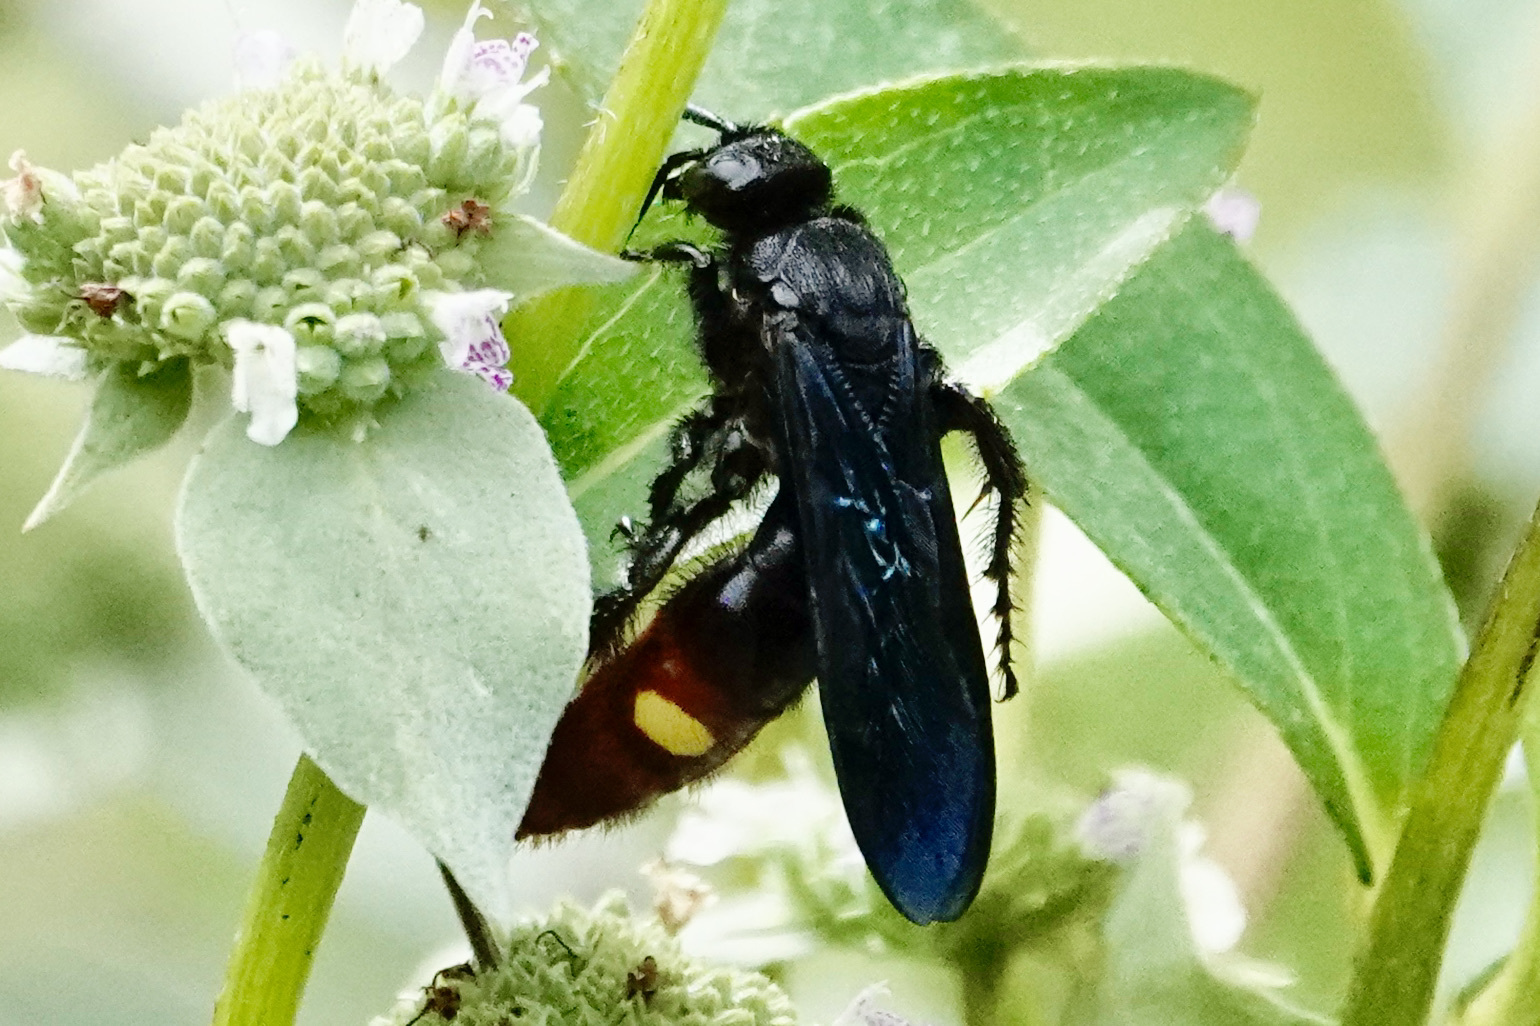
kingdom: Animalia
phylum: Arthropoda
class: Insecta
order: Hymenoptera
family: Scoliidae
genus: Scolia
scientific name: Scolia dubia
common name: Blue-winged scoliid wasp
